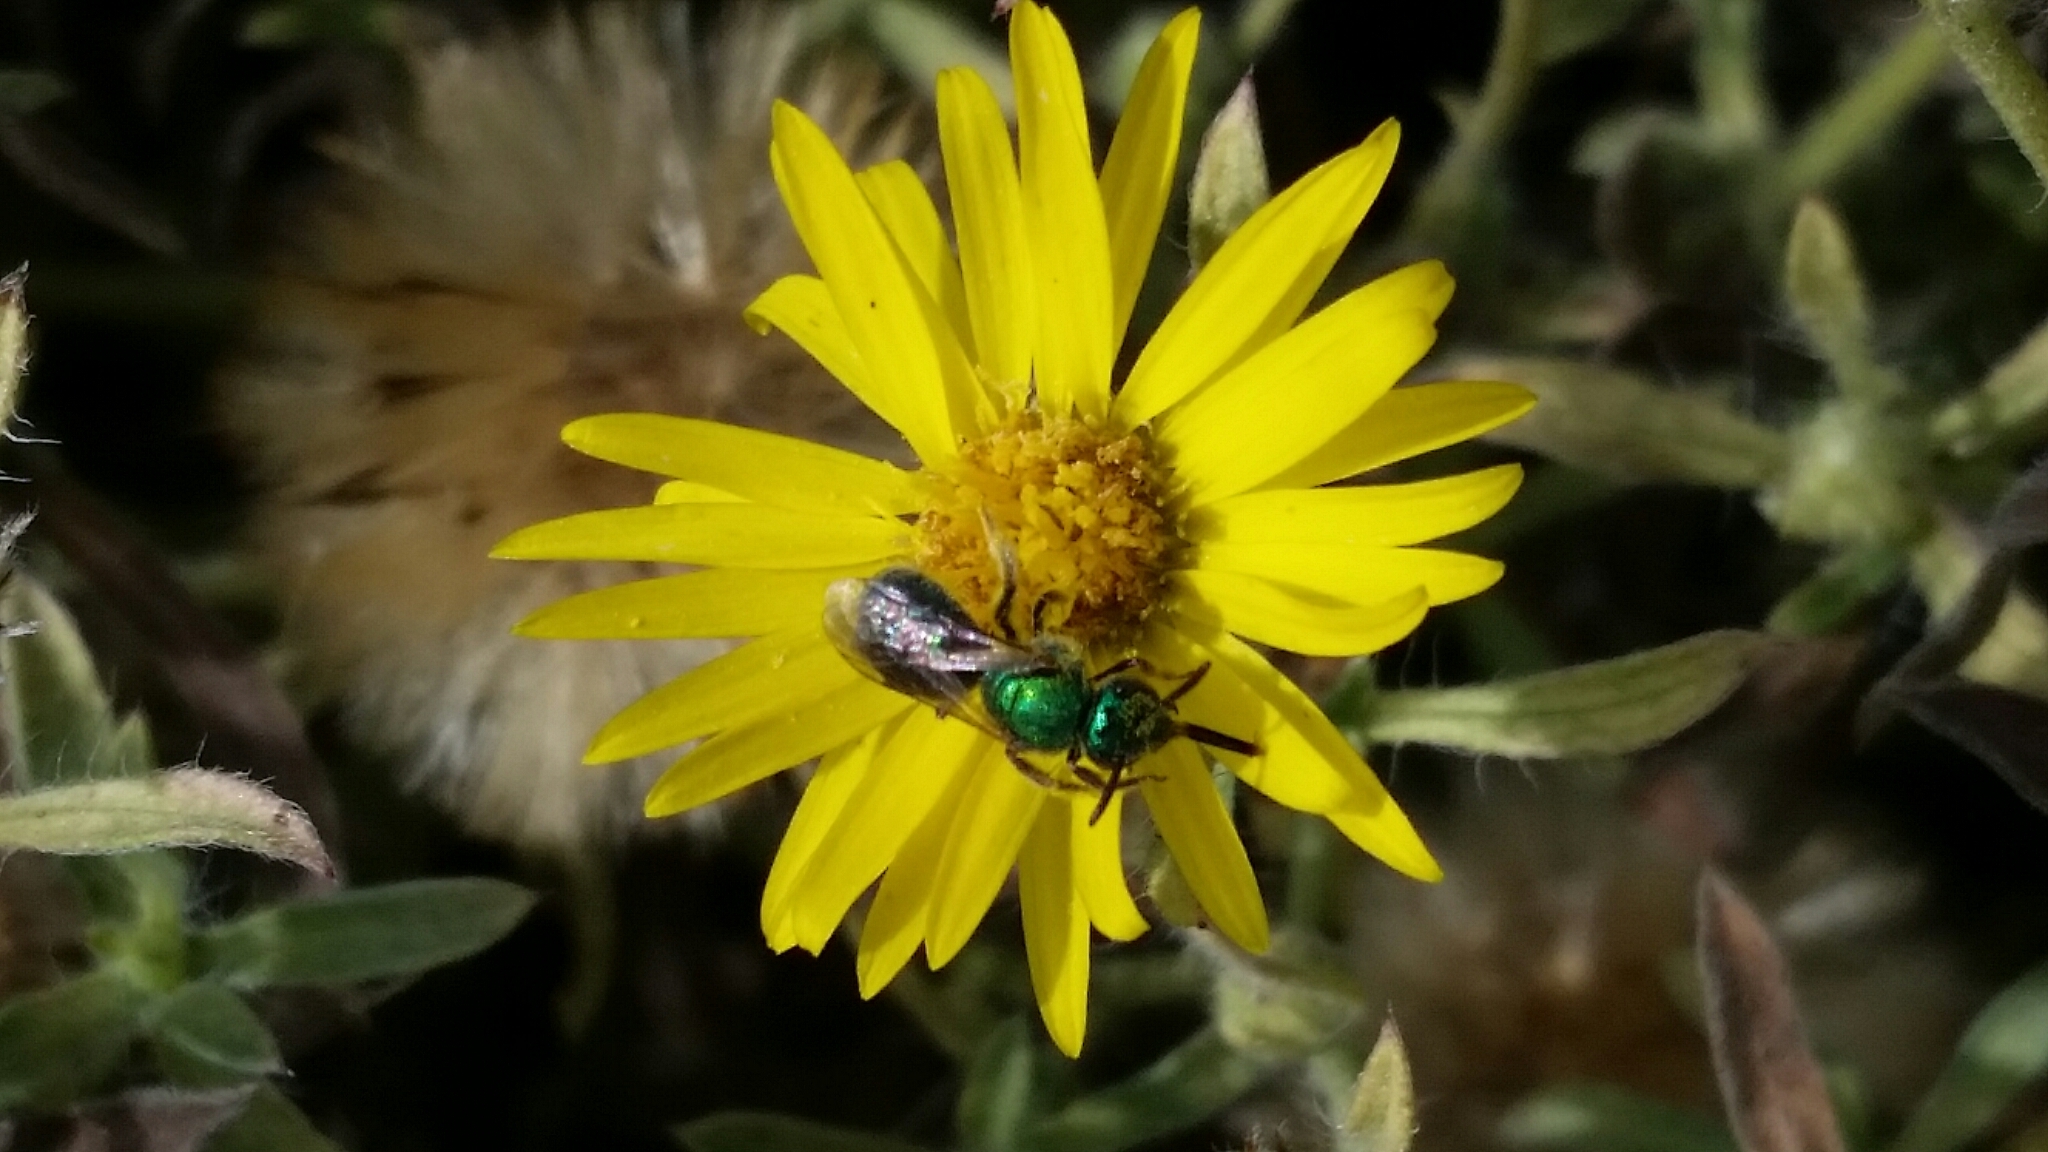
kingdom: Animalia
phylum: Arthropoda
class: Insecta
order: Hymenoptera
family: Halictidae
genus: Augochlorella
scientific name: Augochlorella aurata
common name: Golden sweat bee
